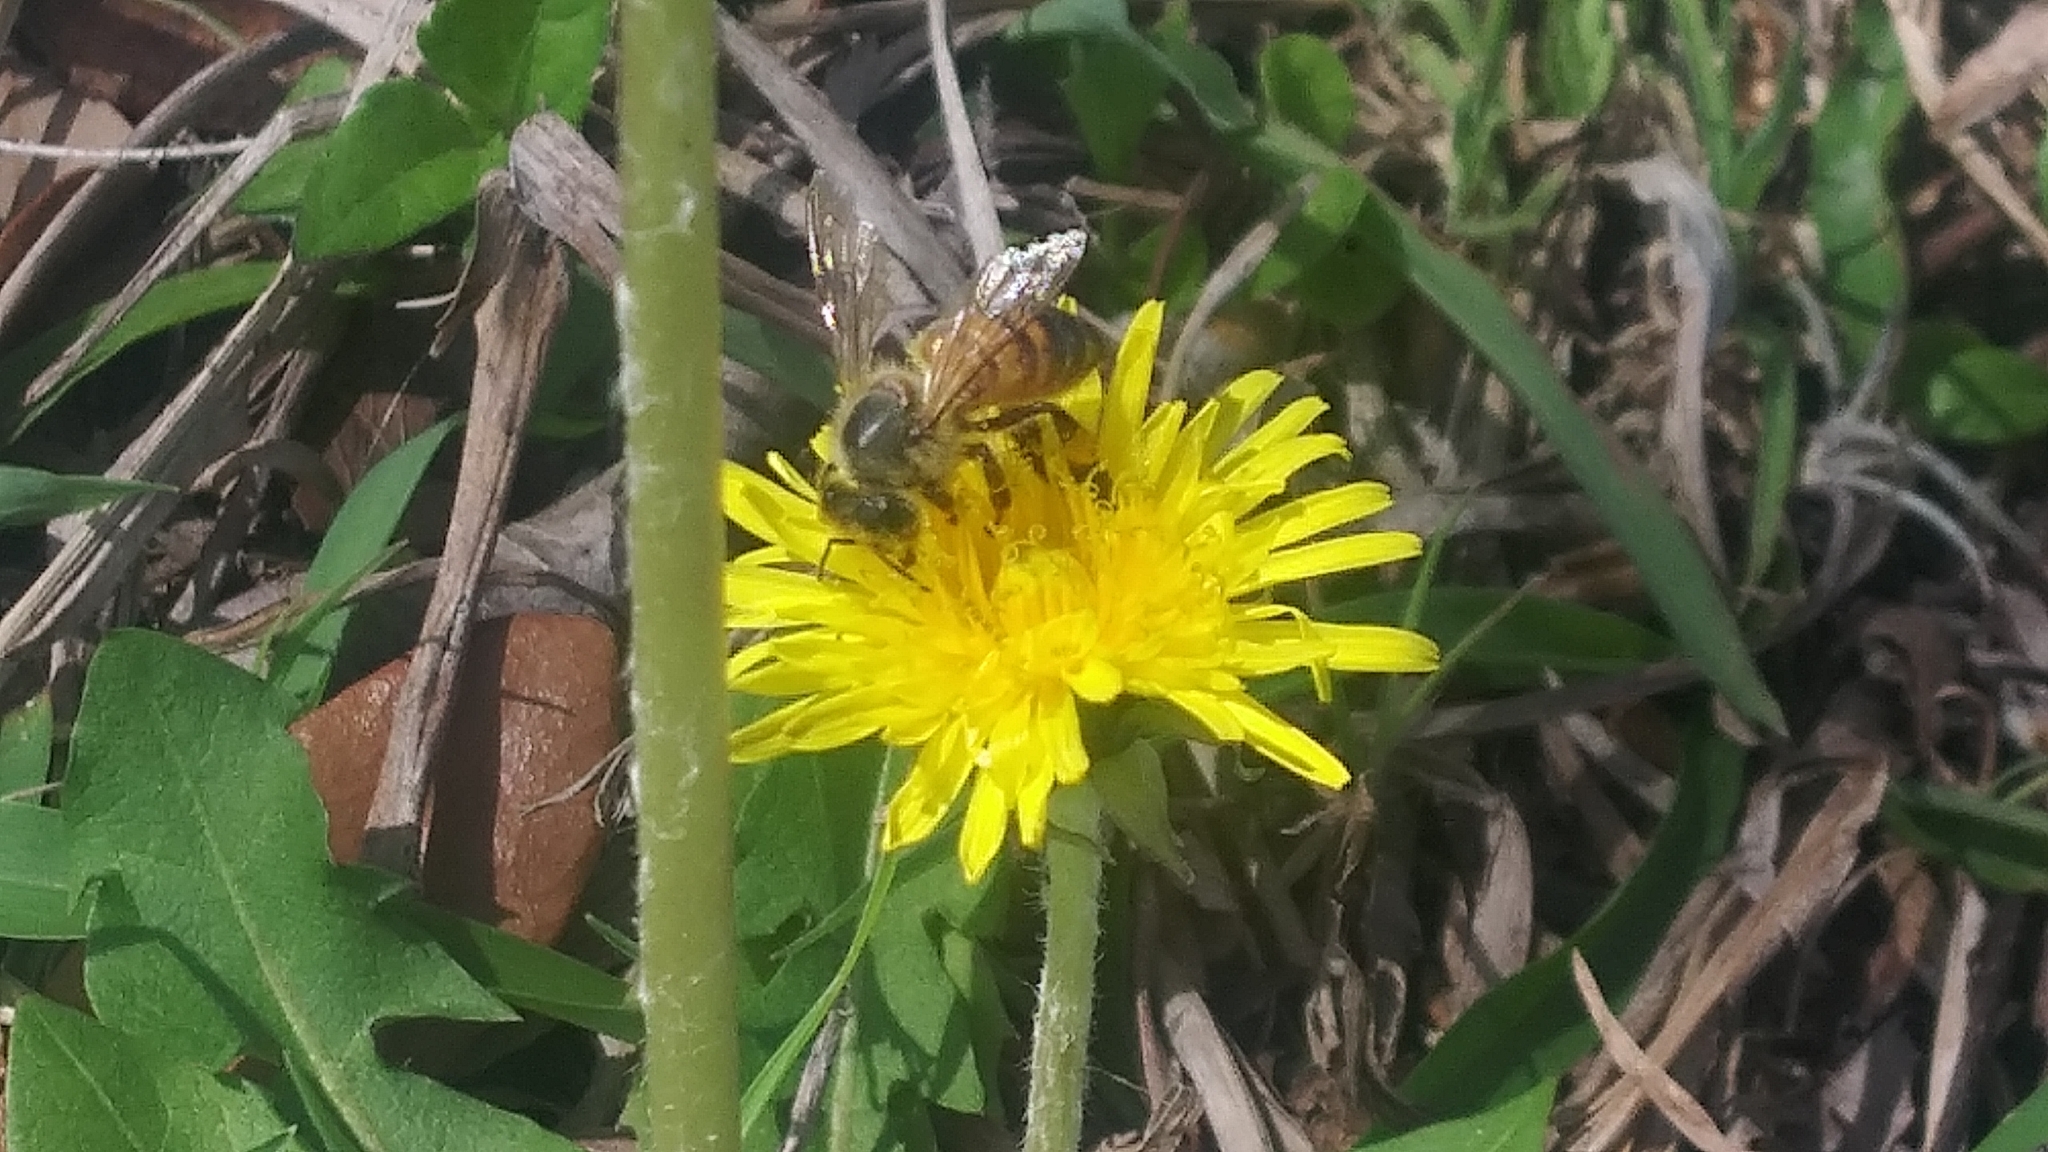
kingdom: Animalia
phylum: Arthropoda
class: Insecta
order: Hymenoptera
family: Apidae
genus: Apis
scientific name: Apis mellifera
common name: Honey bee
